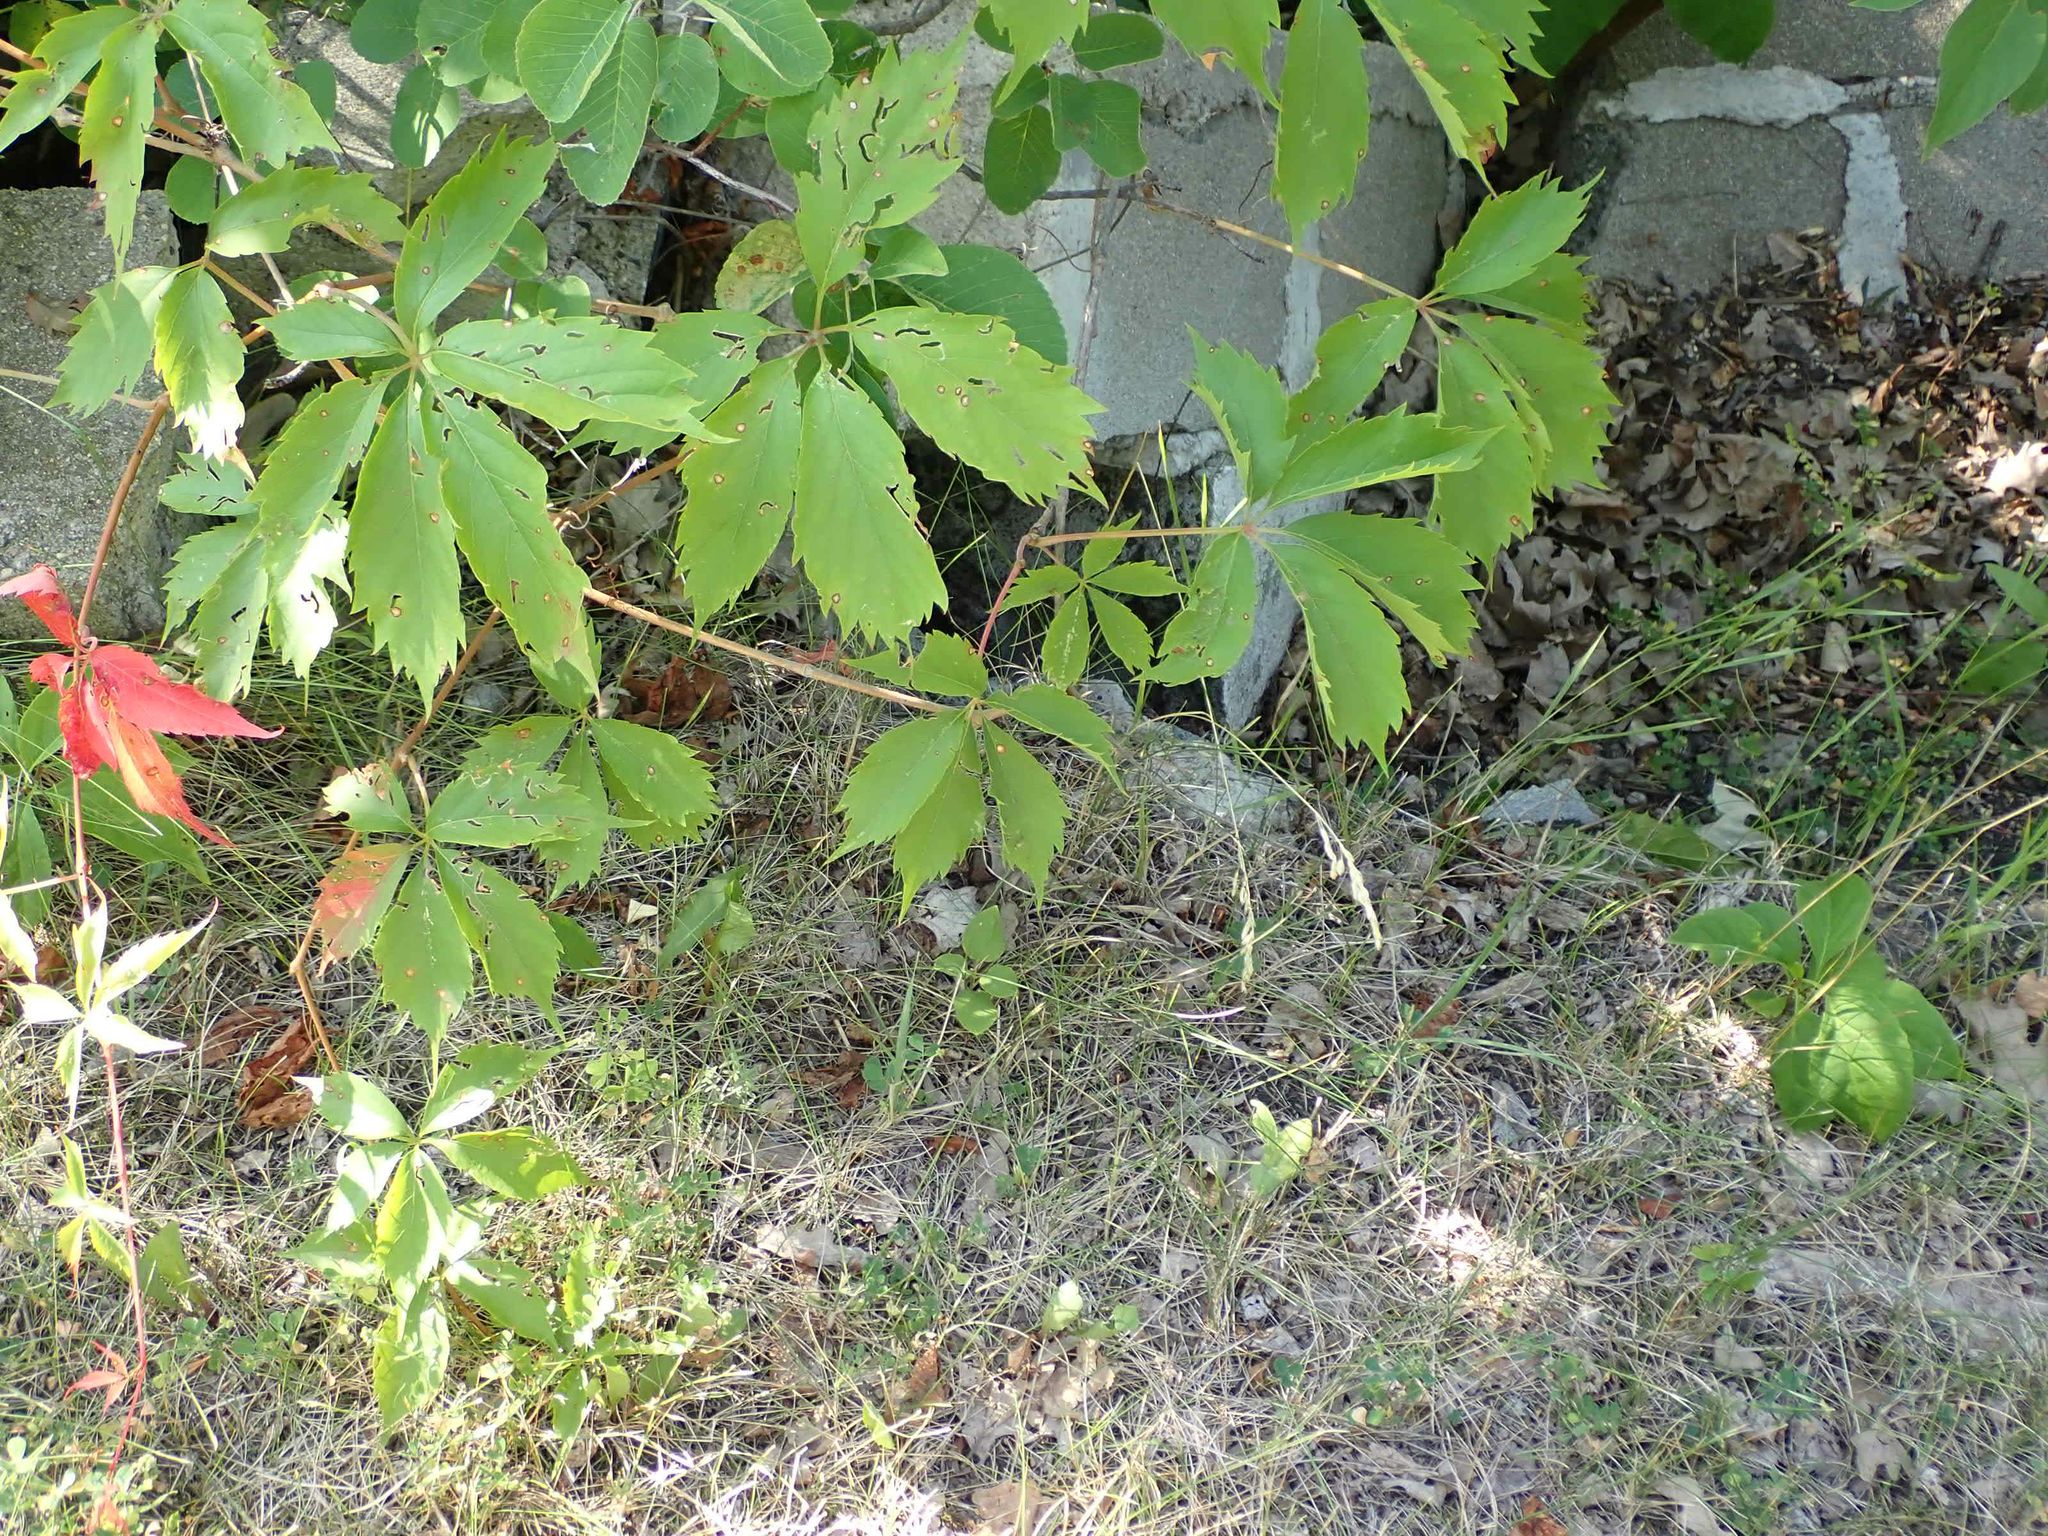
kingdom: Plantae
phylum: Tracheophyta
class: Magnoliopsida
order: Vitales
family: Vitaceae
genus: Parthenocissus
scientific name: Parthenocissus quinquefolia
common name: Virginia-creeper
